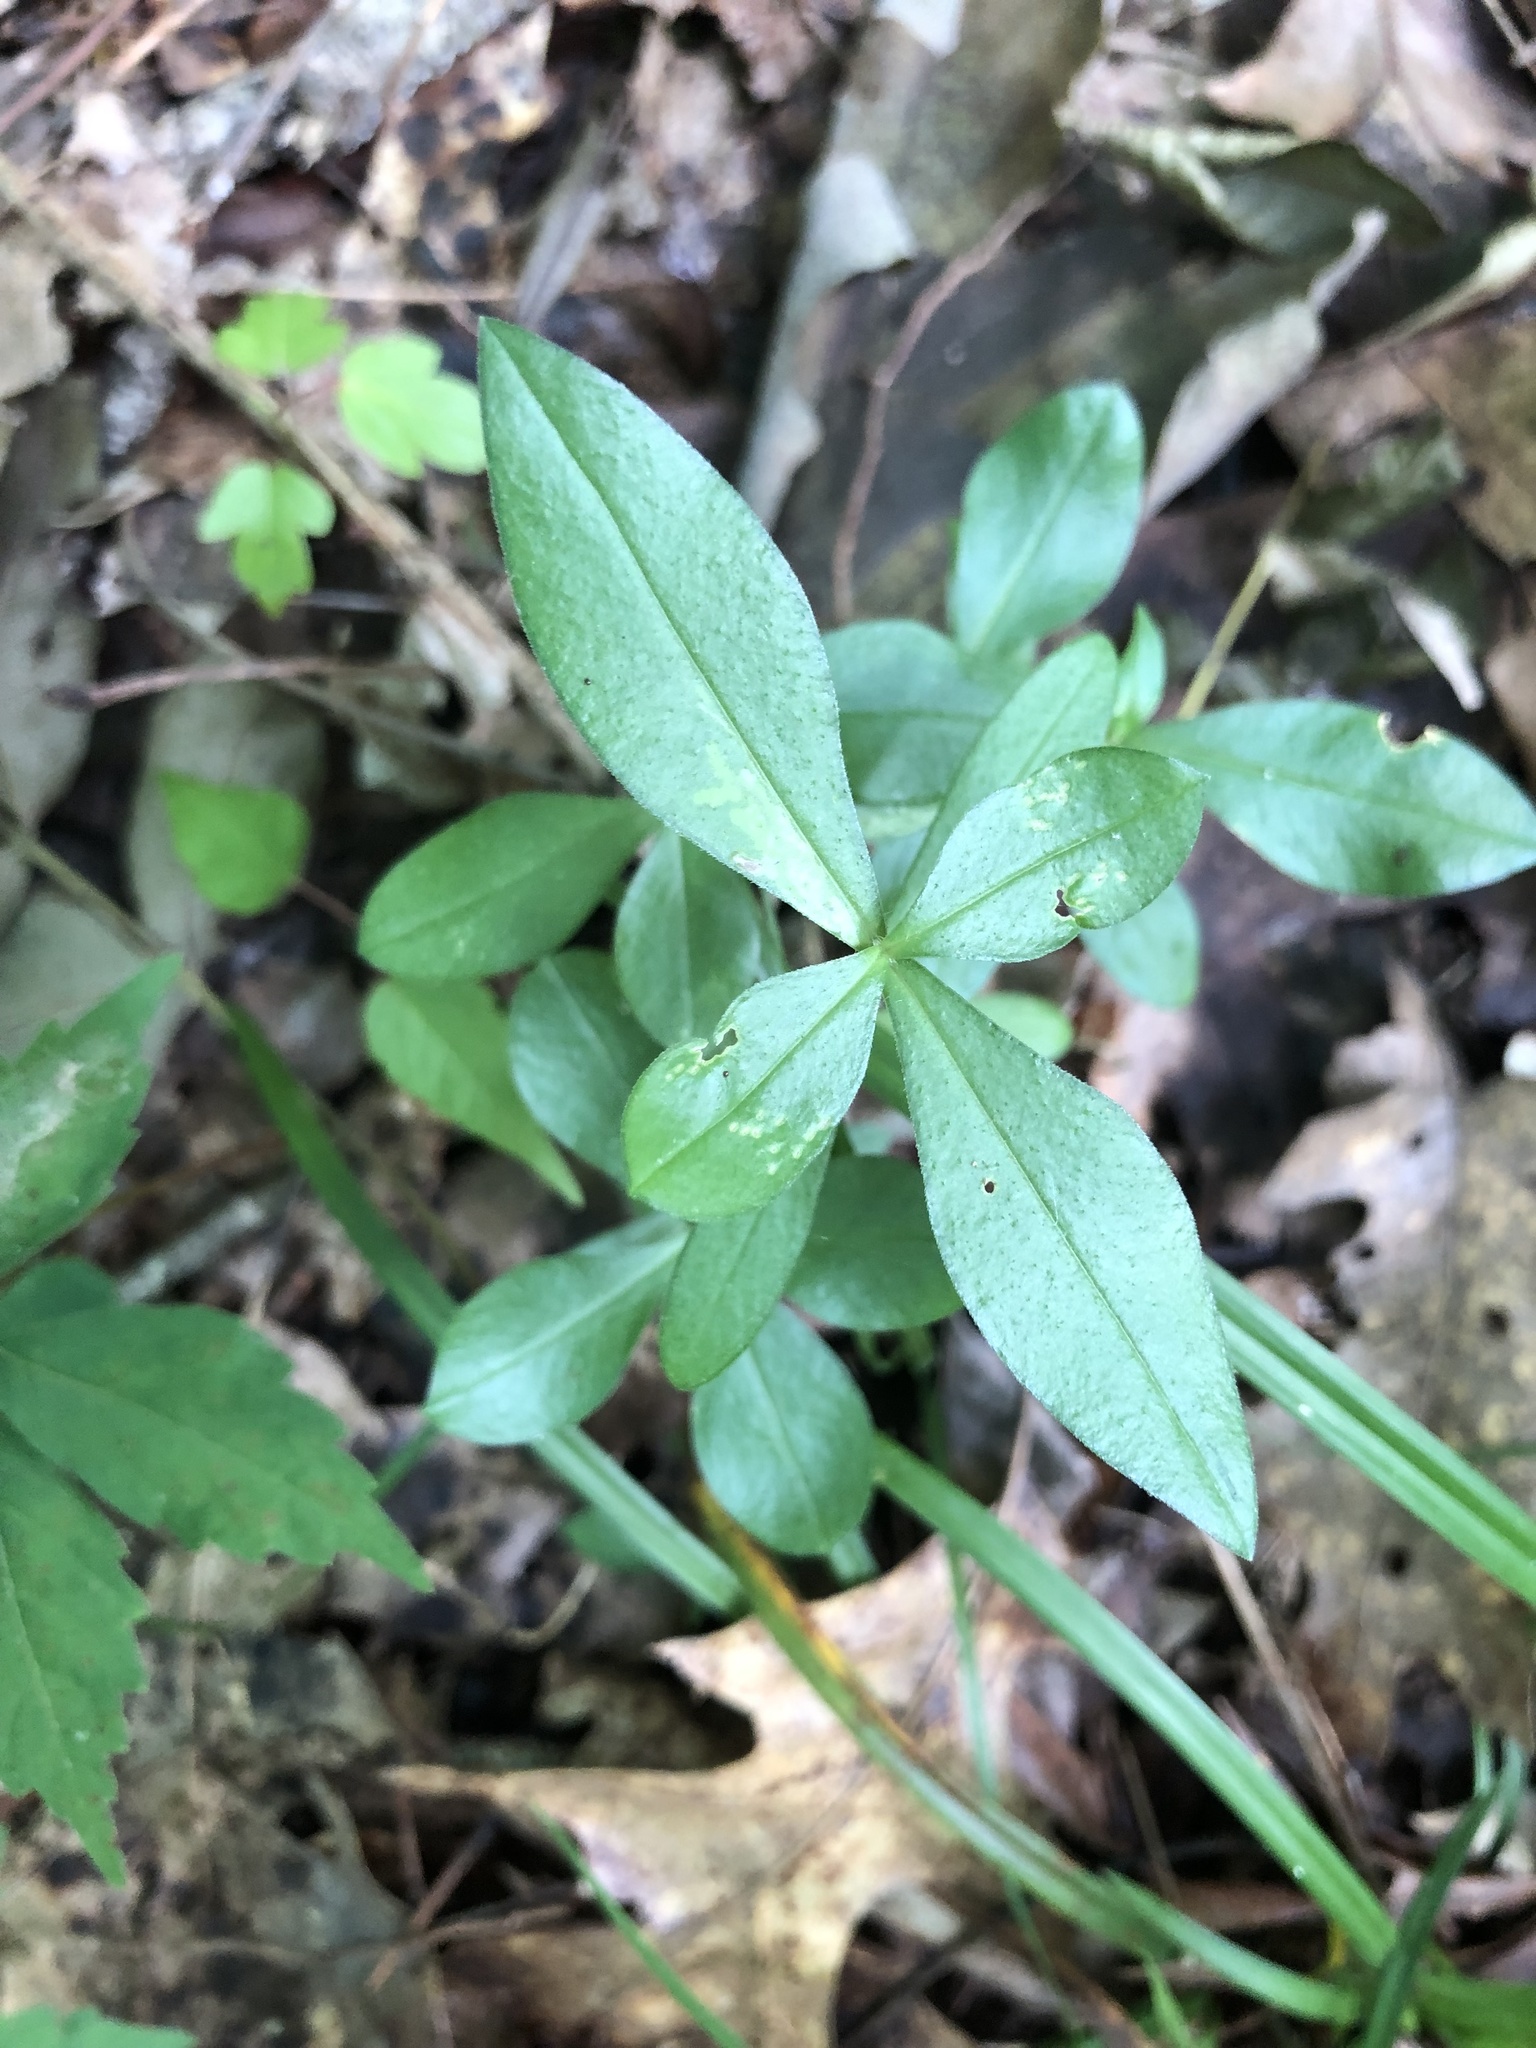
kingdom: Plantae
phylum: Tracheophyta
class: Magnoliopsida
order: Ericales
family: Polemoniaceae
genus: Phlox
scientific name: Phlox divaricata
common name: Blue phlox
